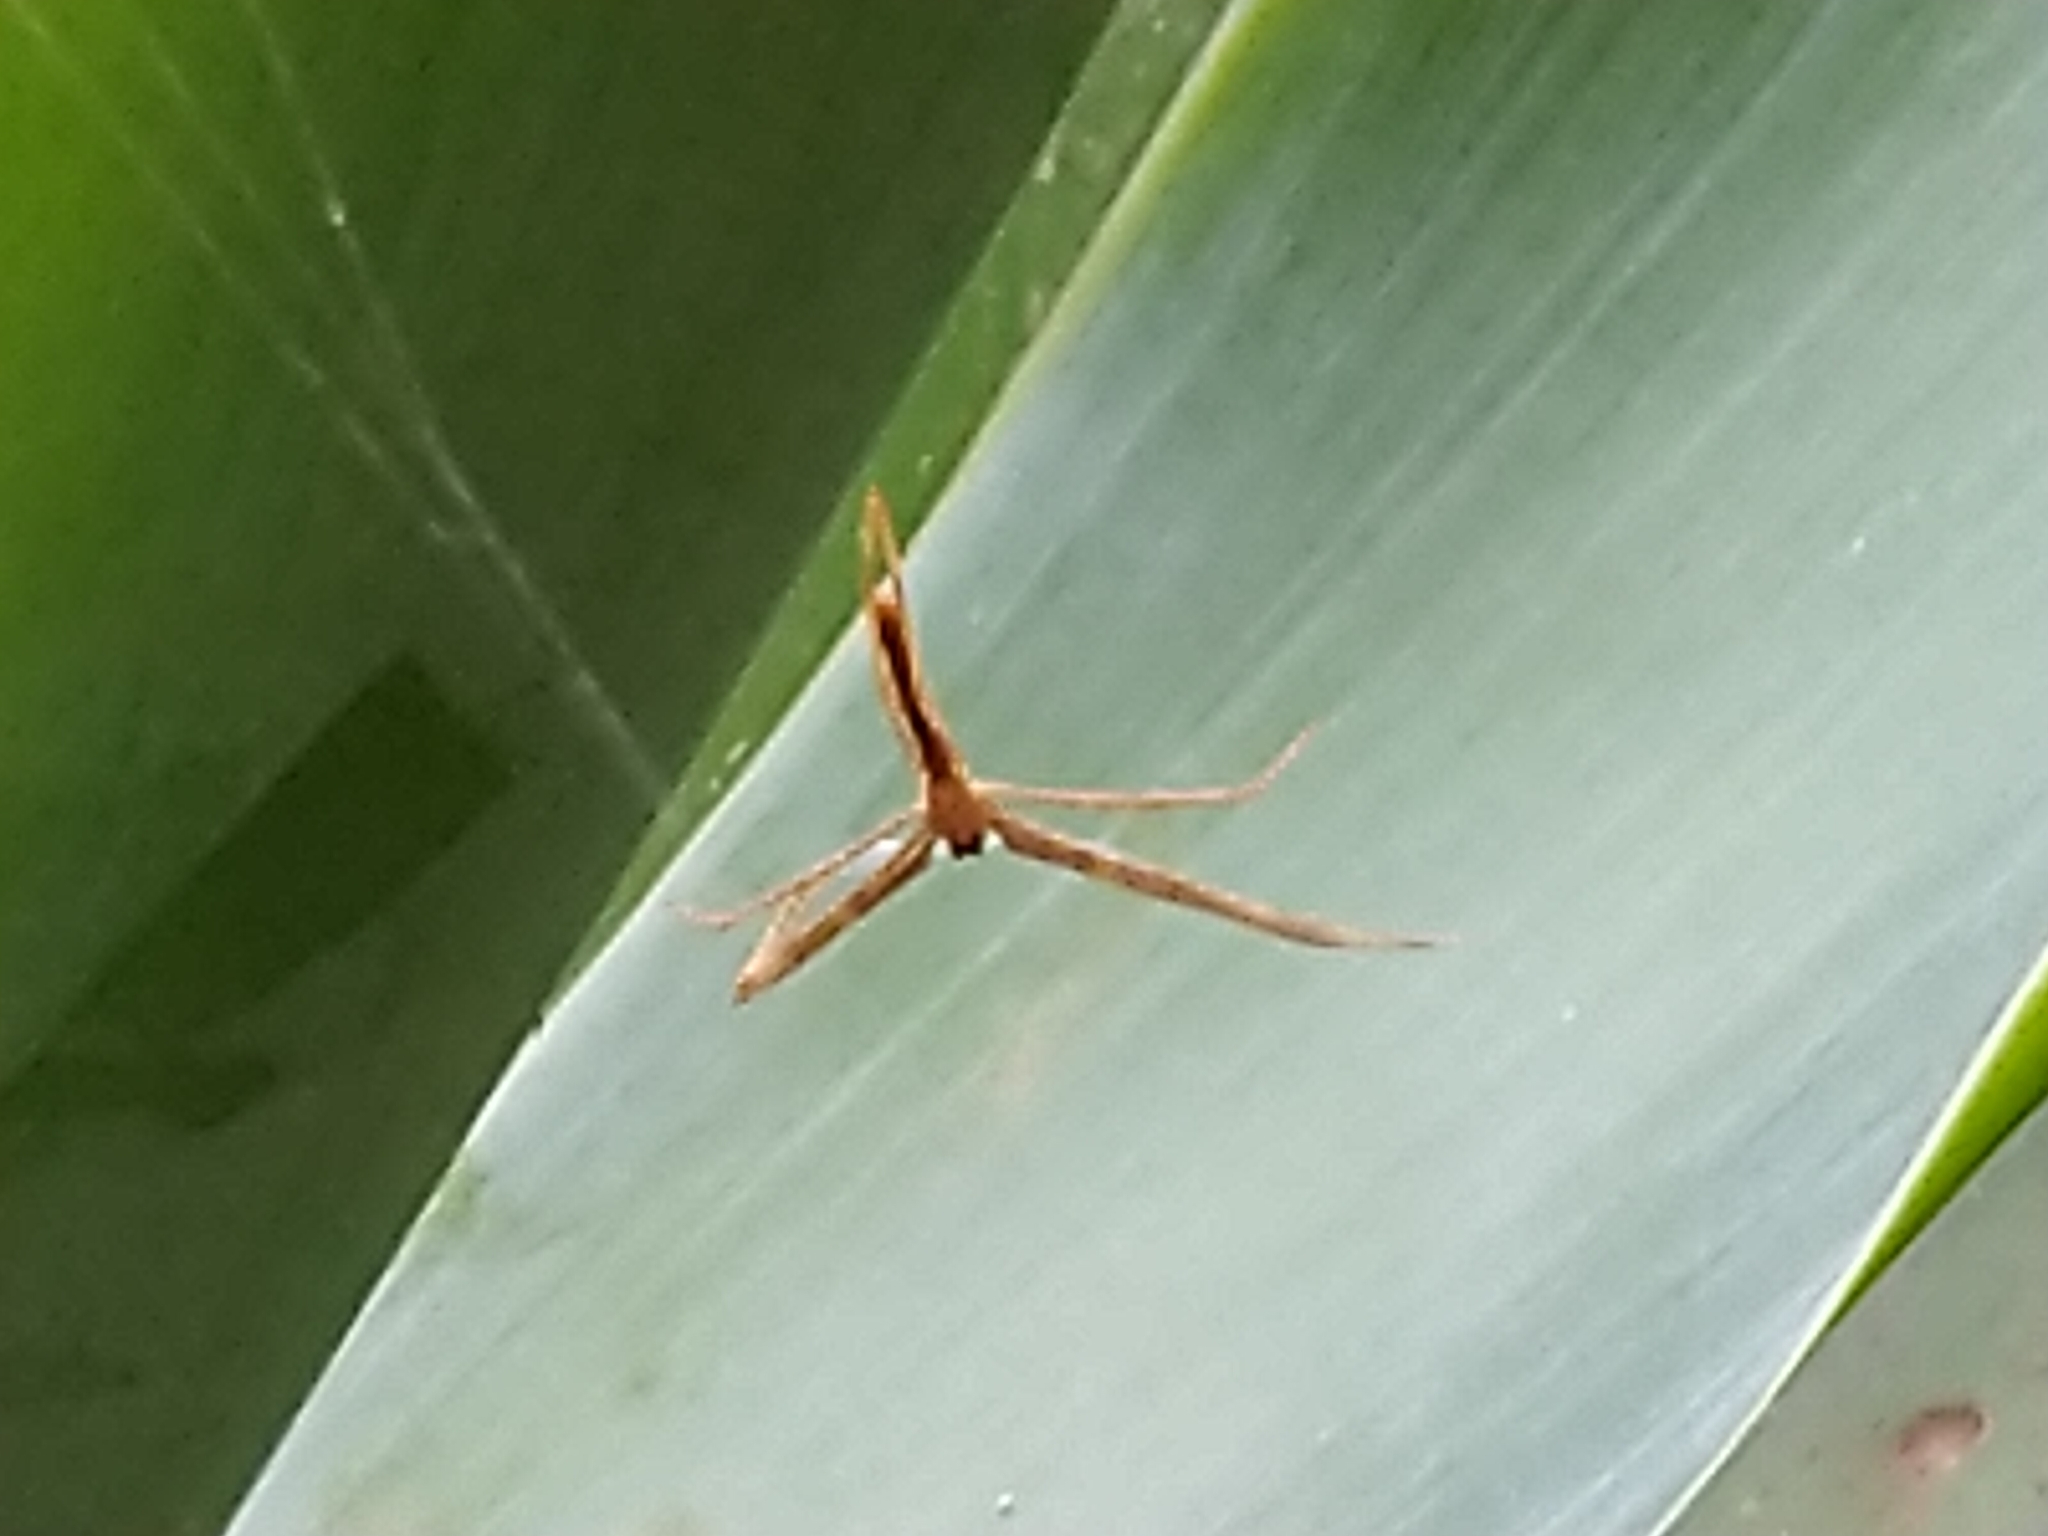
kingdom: Animalia
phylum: Arthropoda
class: Arachnida
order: Araneae
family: Deinopidae
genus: Deinopis
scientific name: Deinopis subrufa
